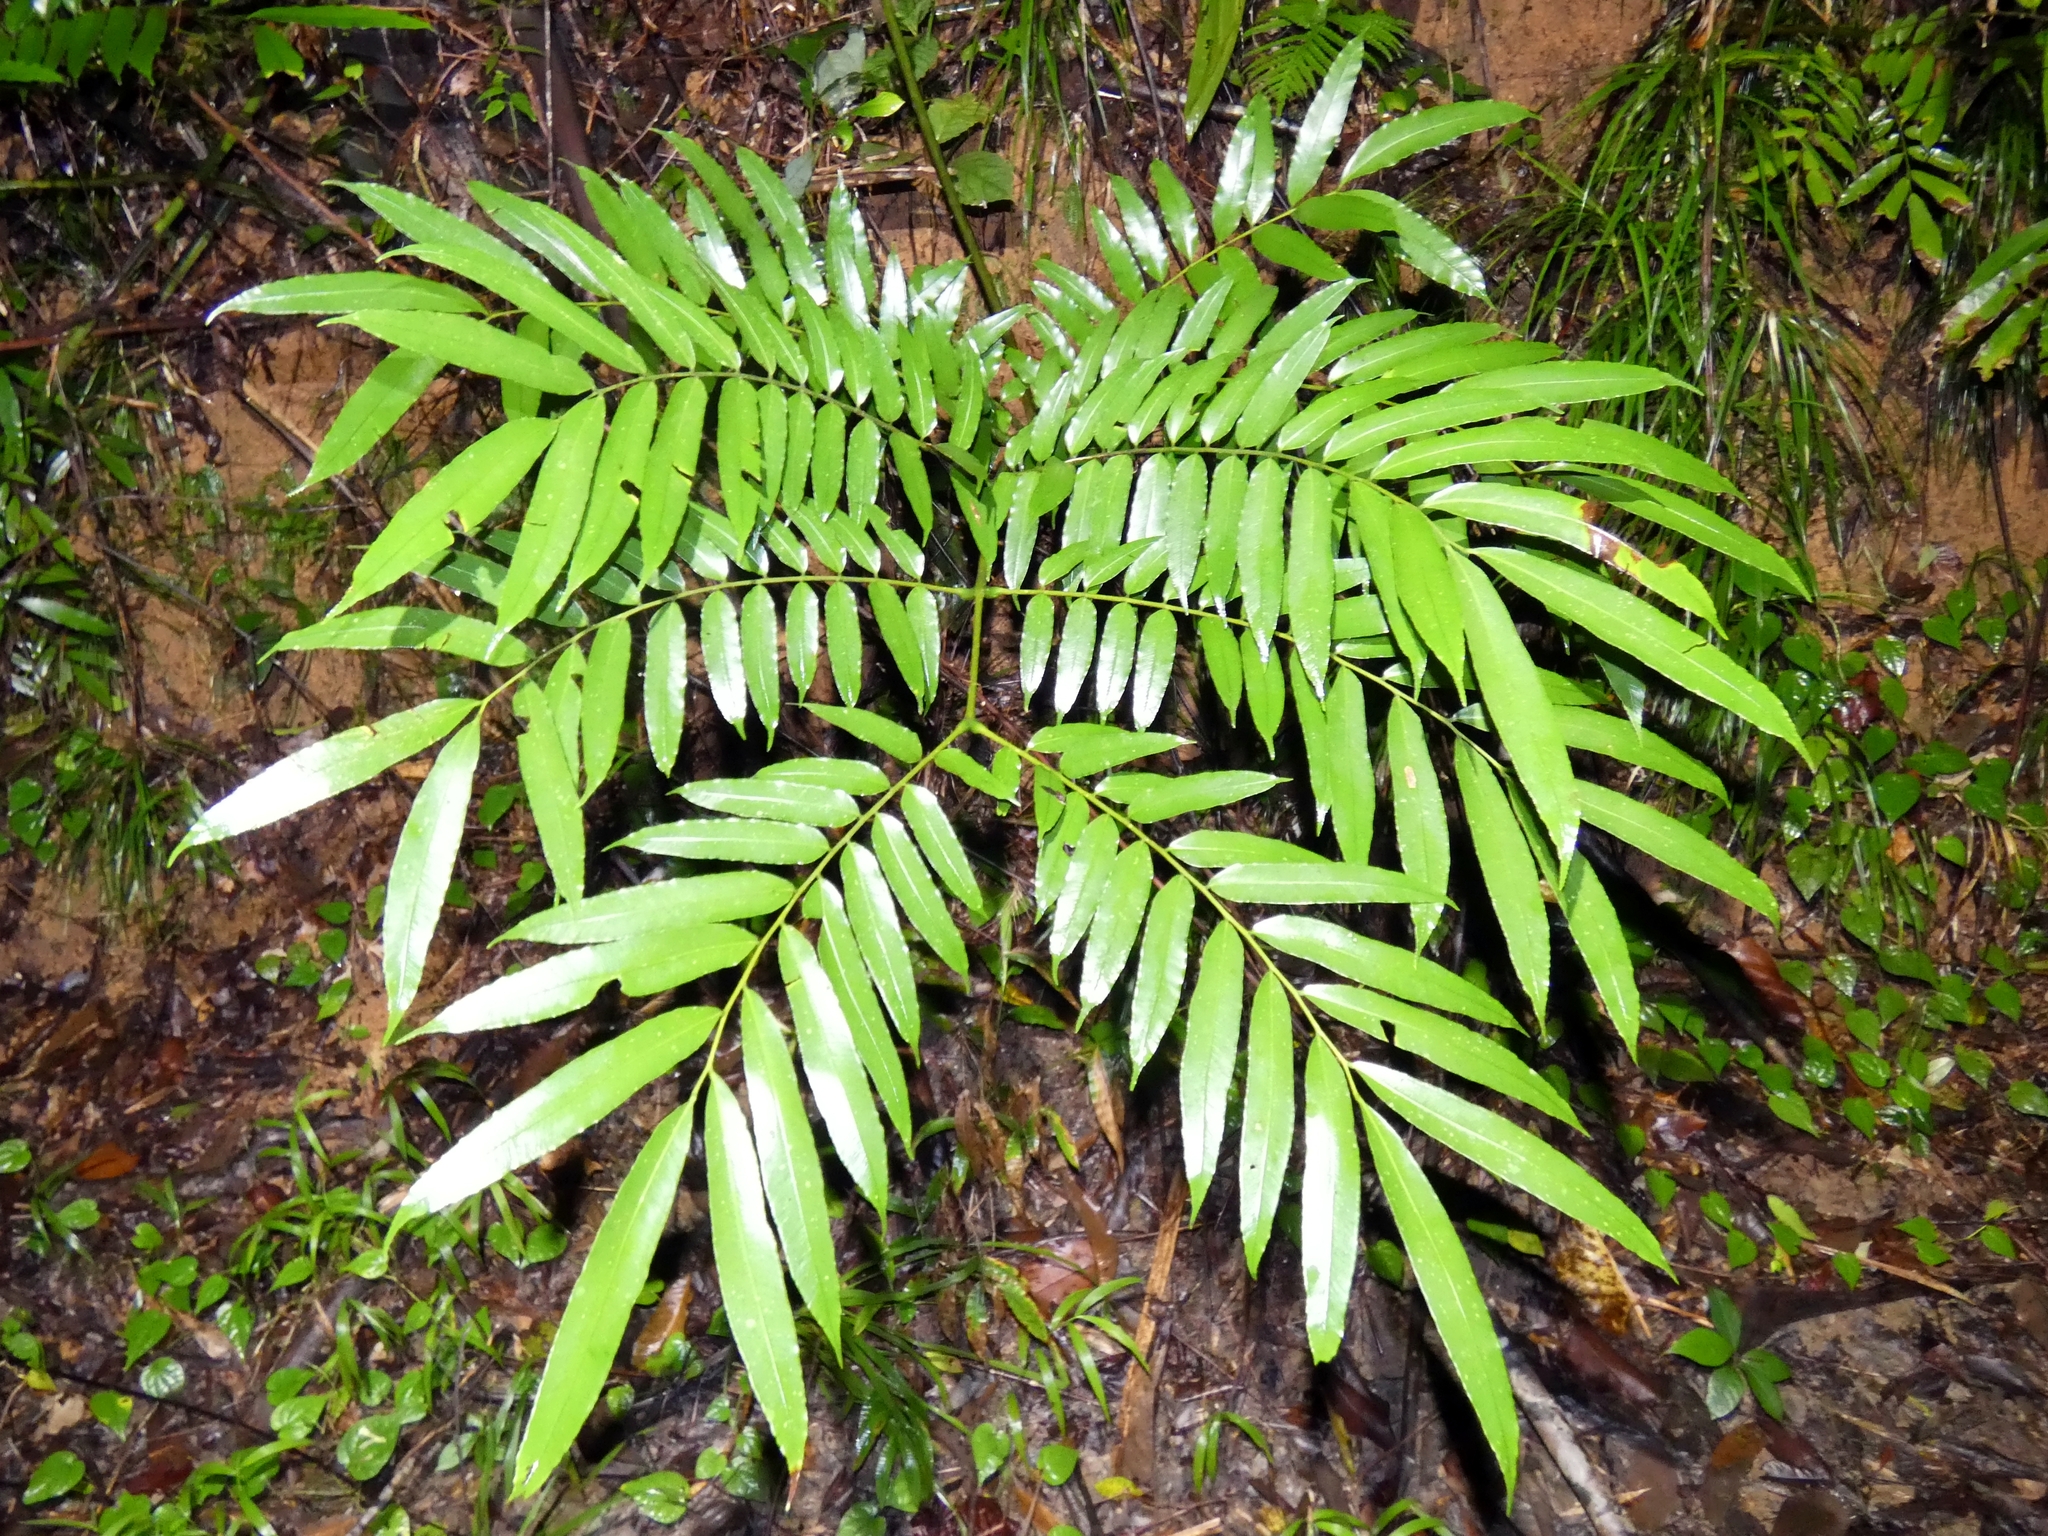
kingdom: Plantae
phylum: Tracheophyta
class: Polypodiopsida
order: Marattiales
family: Marattiaceae
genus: Ptisana
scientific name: Ptisana oreades
